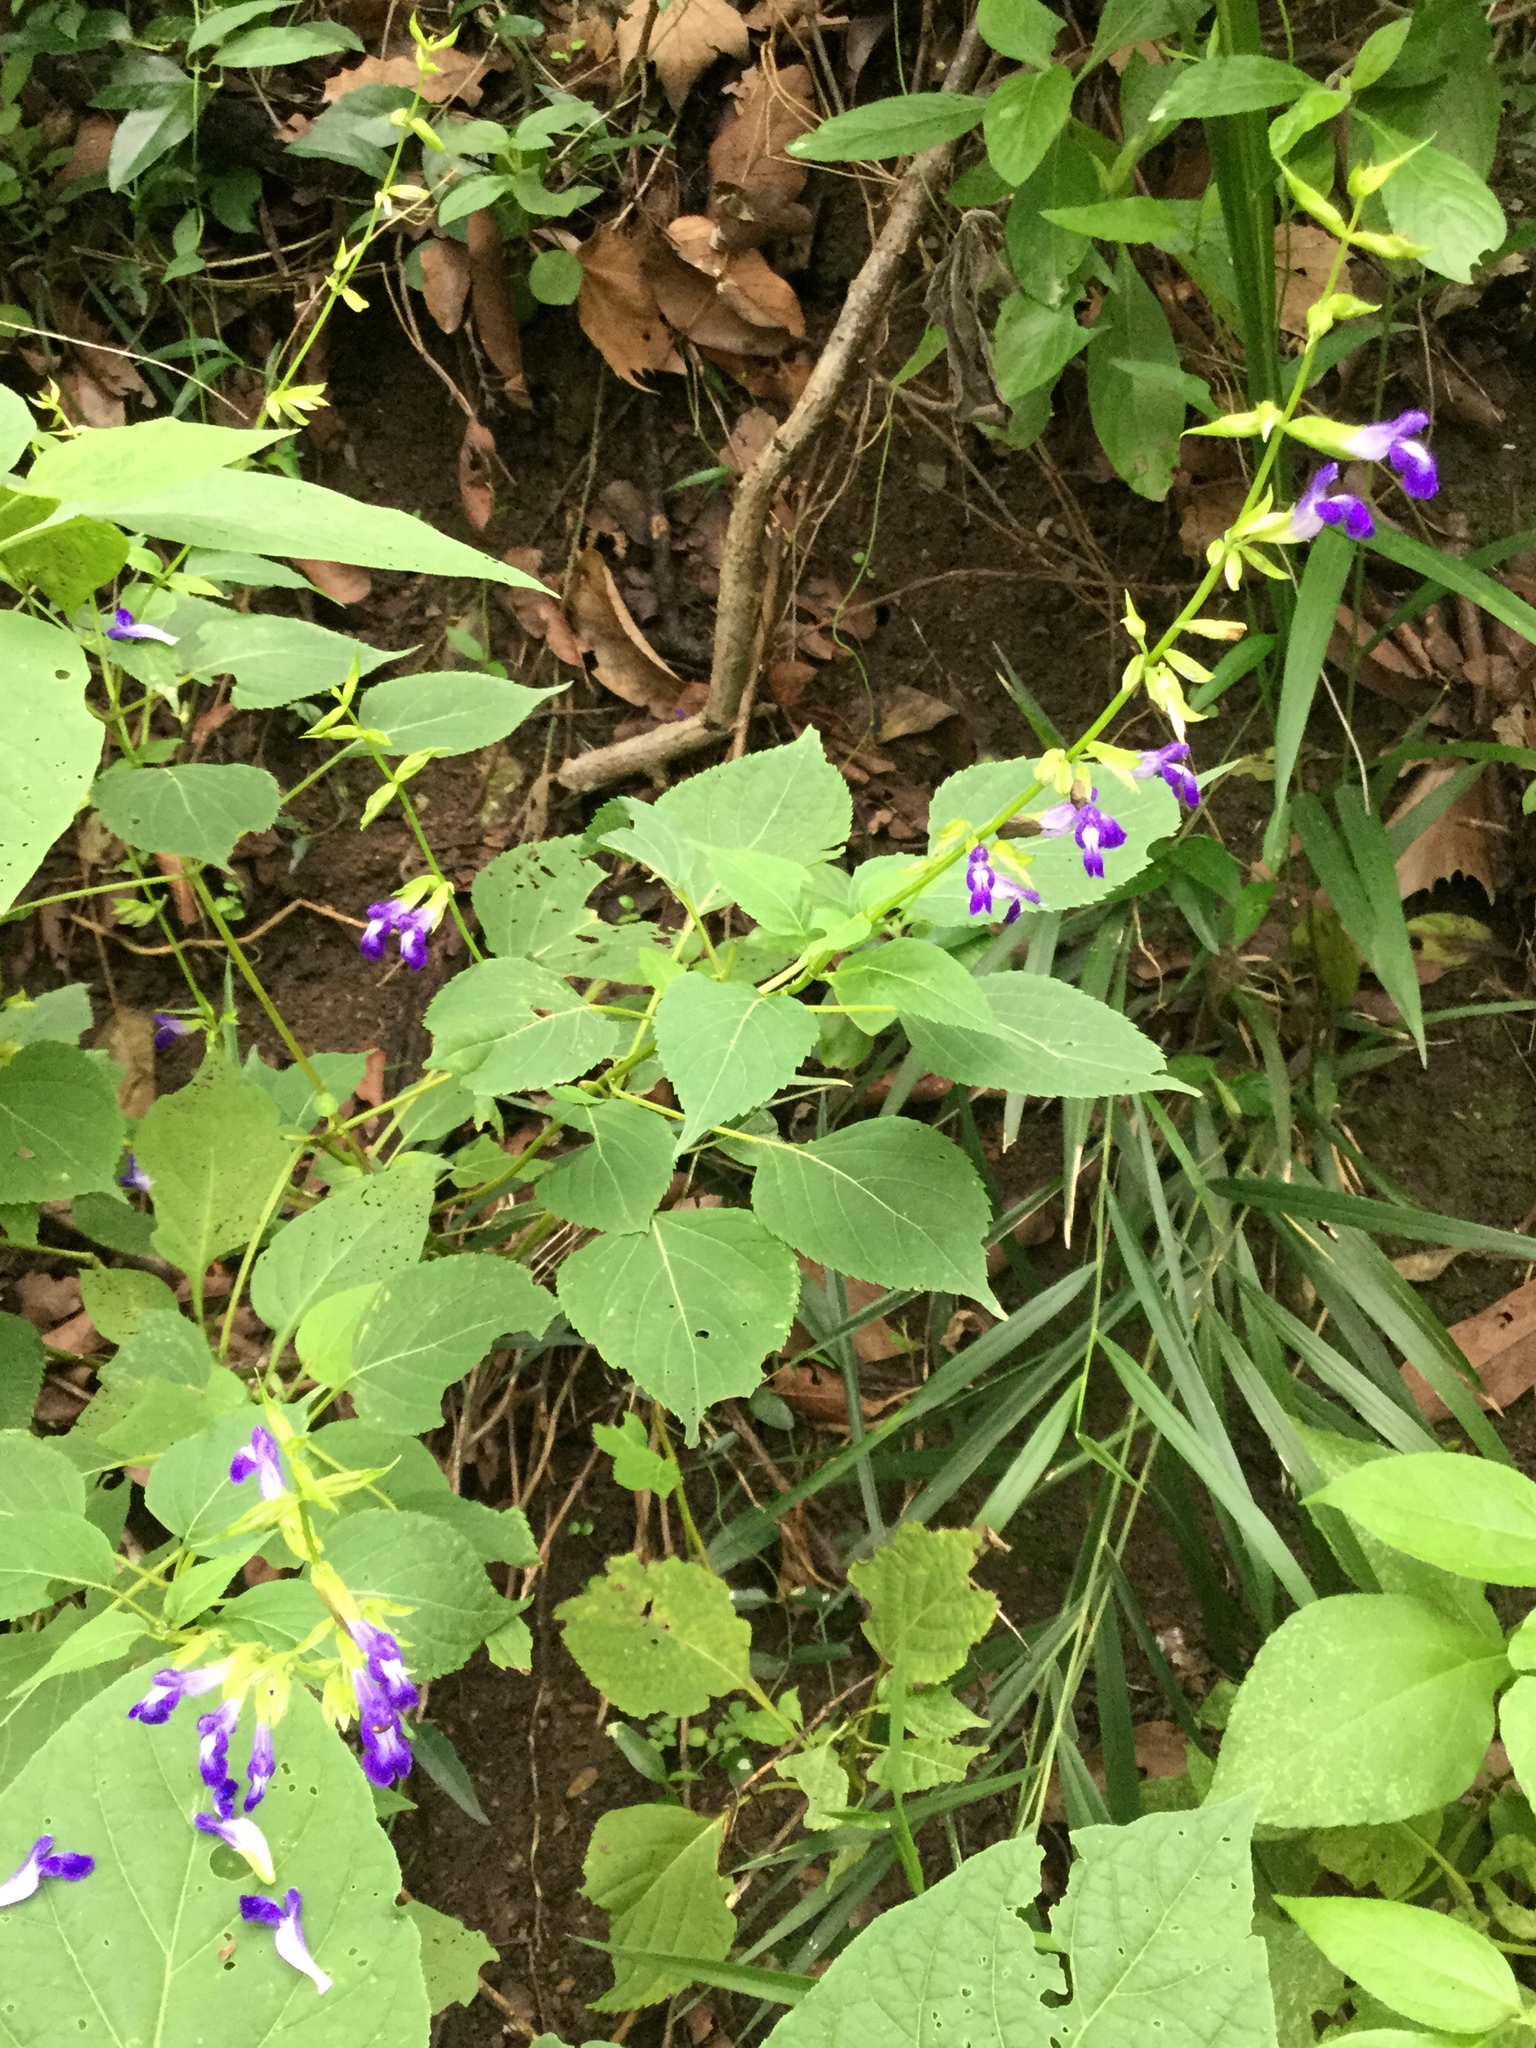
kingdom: Plantae
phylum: Tracheophyta
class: Magnoliopsida
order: Lamiales
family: Lamiaceae
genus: Salvia
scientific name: Salvia caudata
